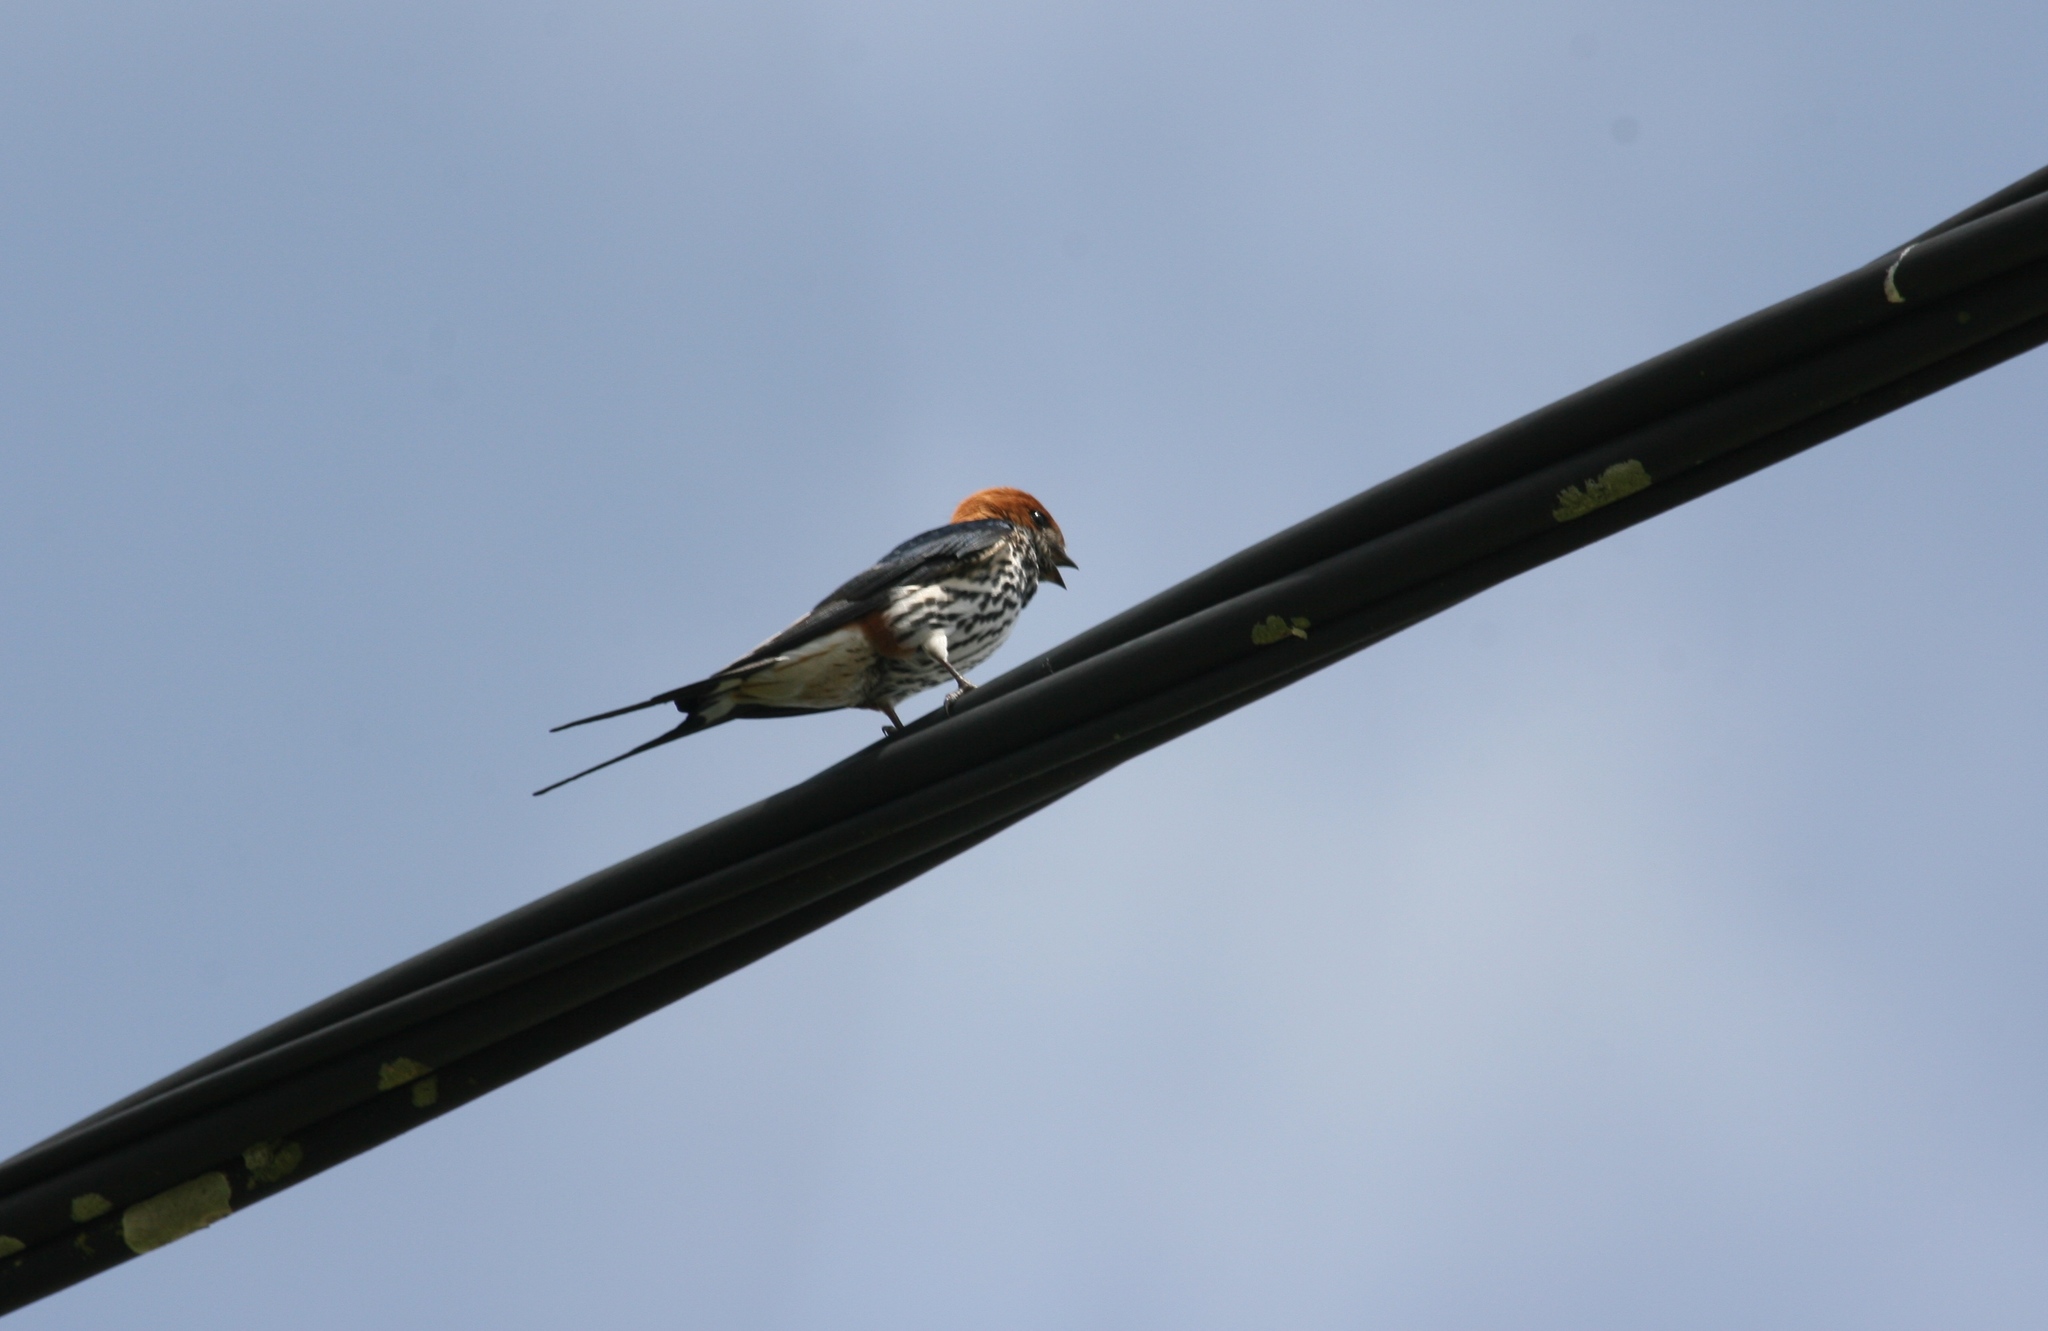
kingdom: Animalia
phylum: Chordata
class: Aves
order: Passeriformes
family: Hirundinidae
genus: Cecropis
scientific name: Cecropis abyssinica
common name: Lesser striped-swallow
